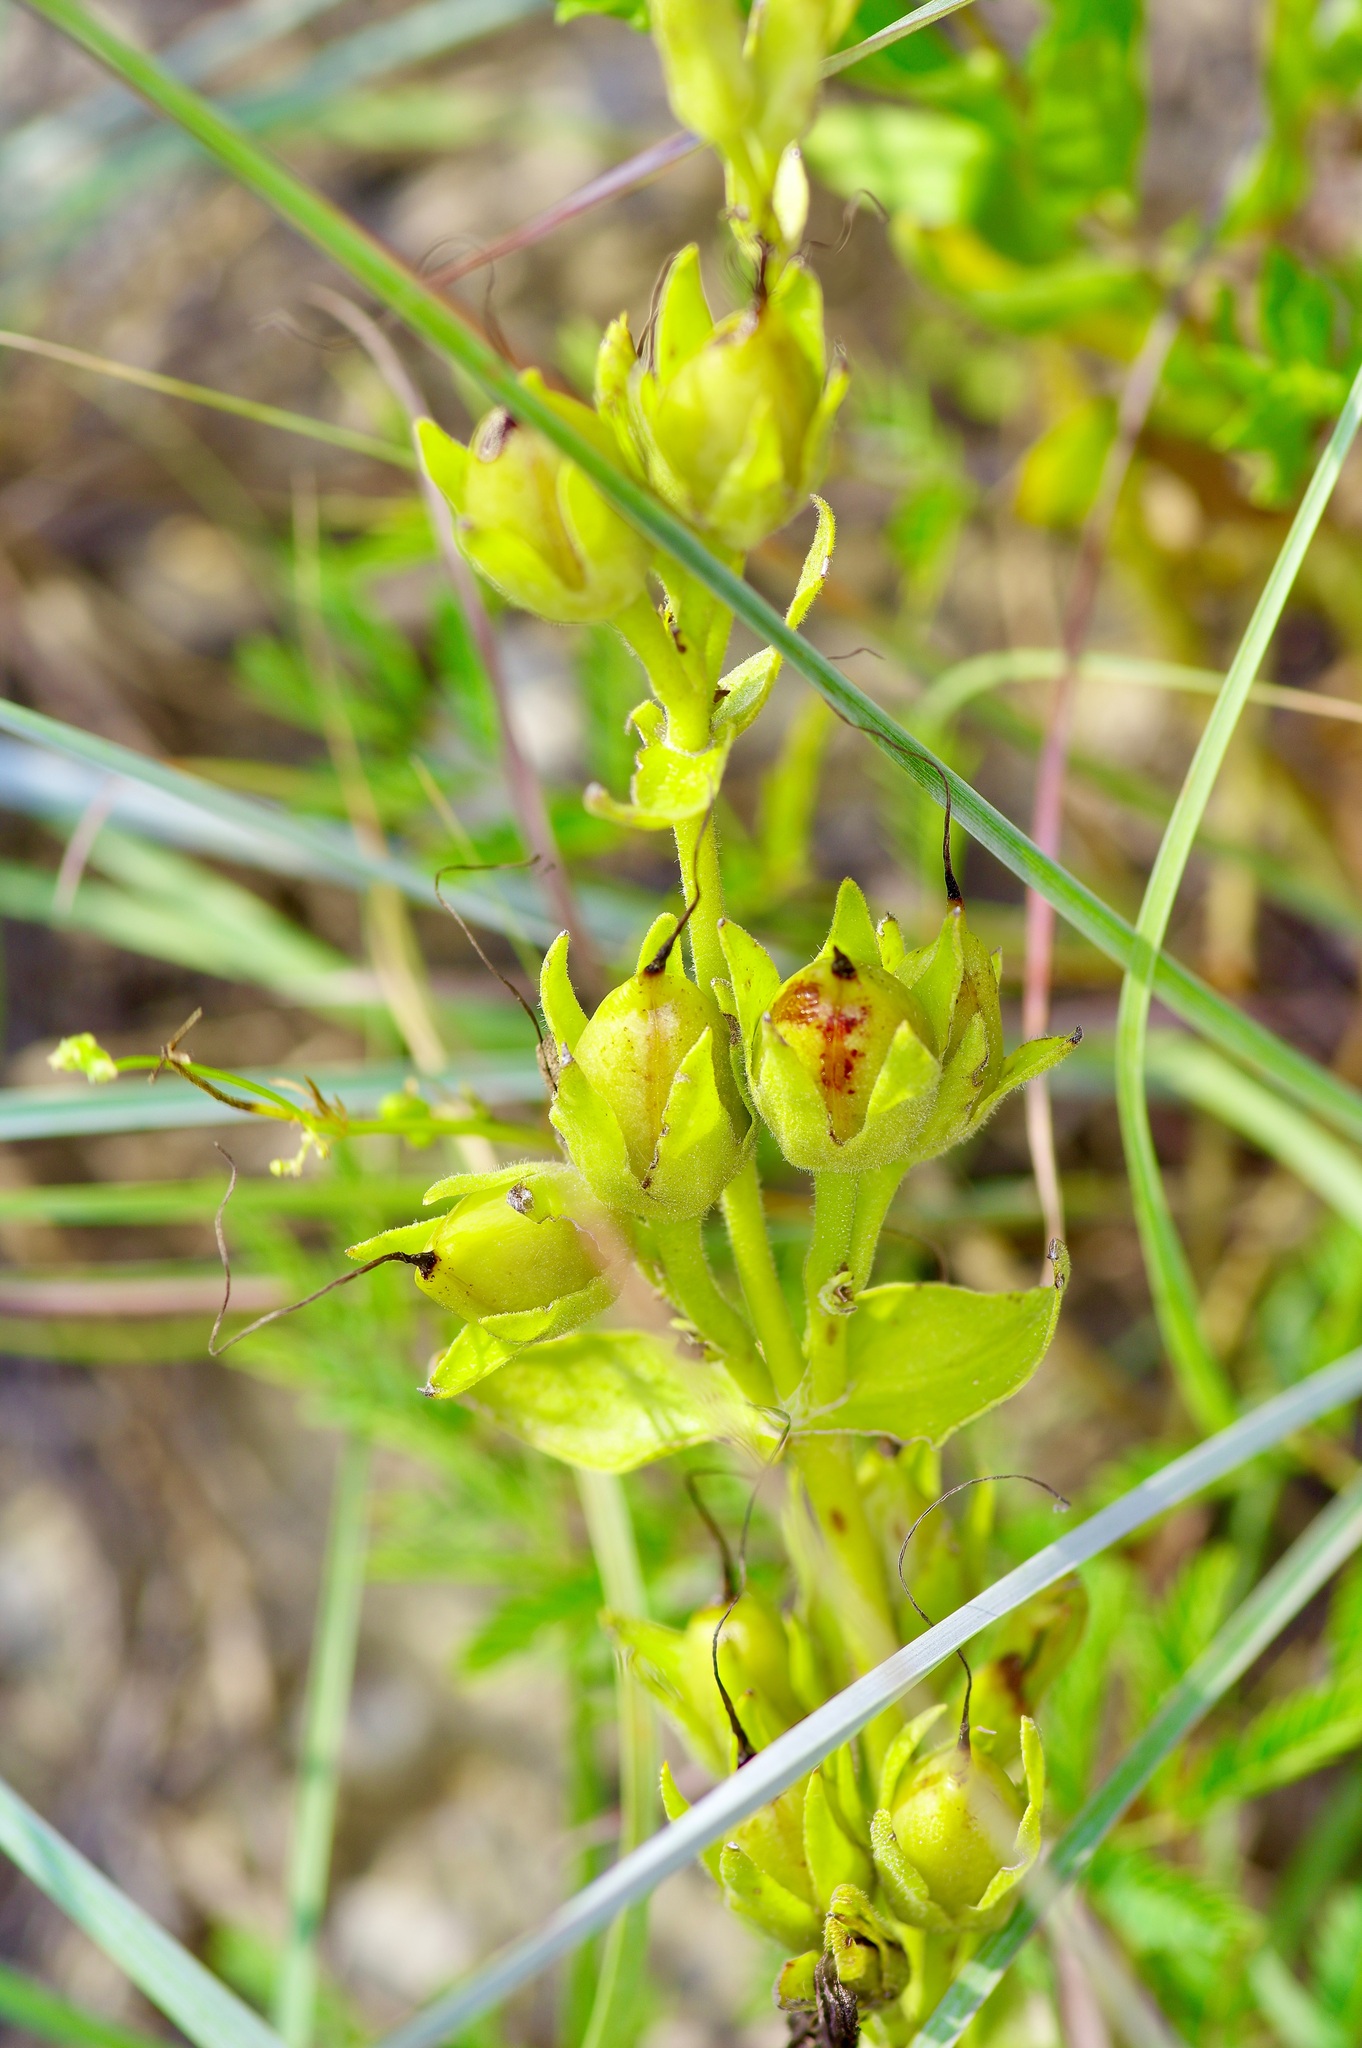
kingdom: Plantae
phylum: Tracheophyta
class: Magnoliopsida
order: Lamiales
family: Plantaginaceae
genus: Penstemon
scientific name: Penstemon cobaea
